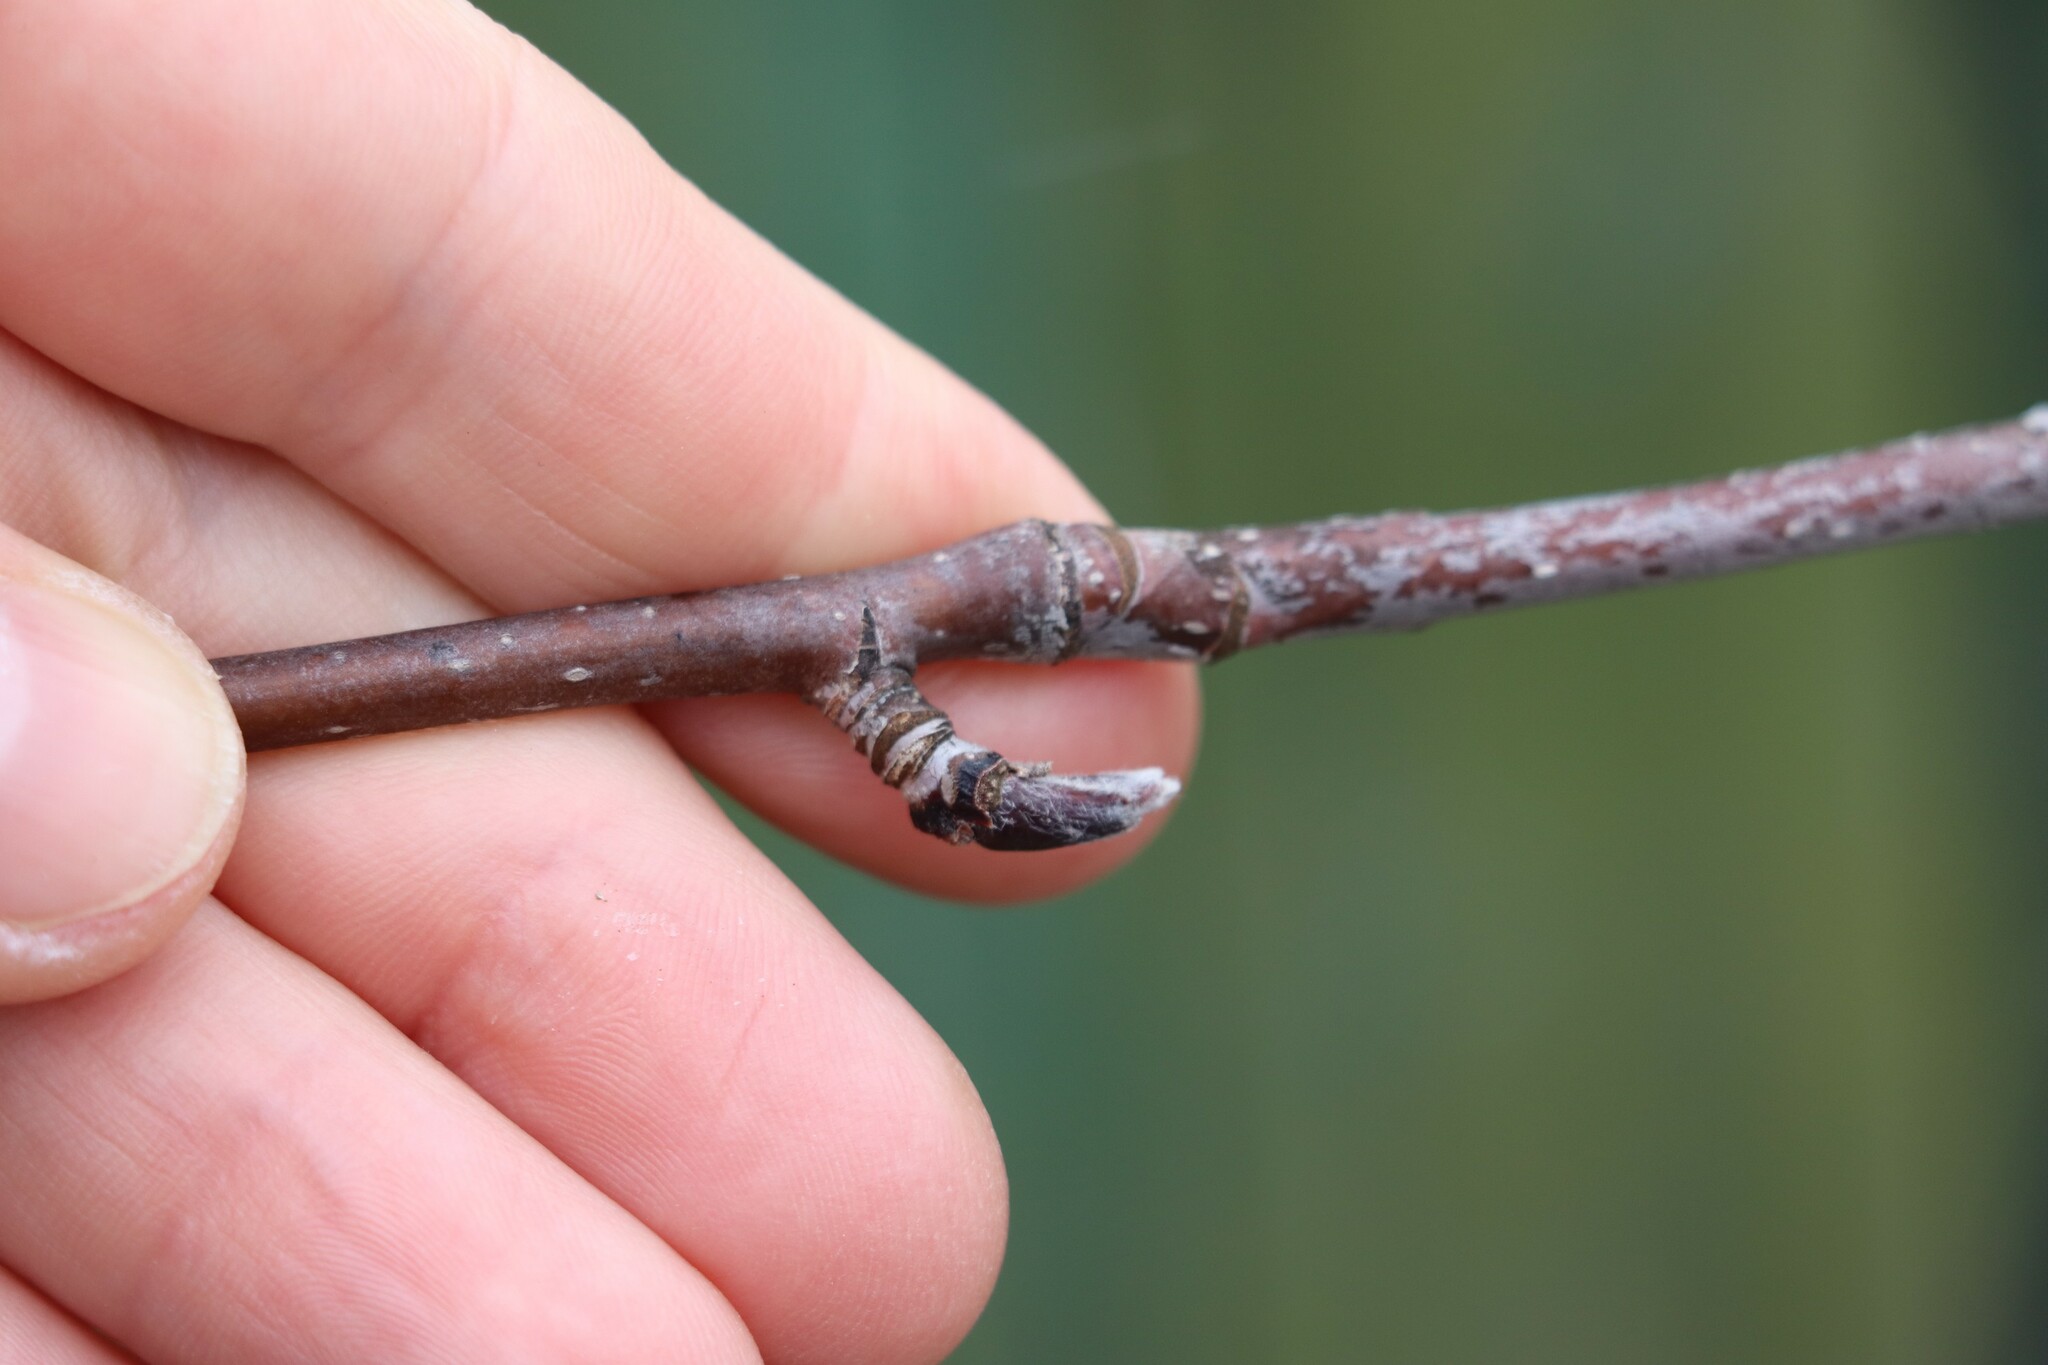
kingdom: Plantae
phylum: Tracheophyta
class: Magnoliopsida
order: Dipsacales
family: Viburnaceae
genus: Sambucus
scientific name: Sambucus sibirica
